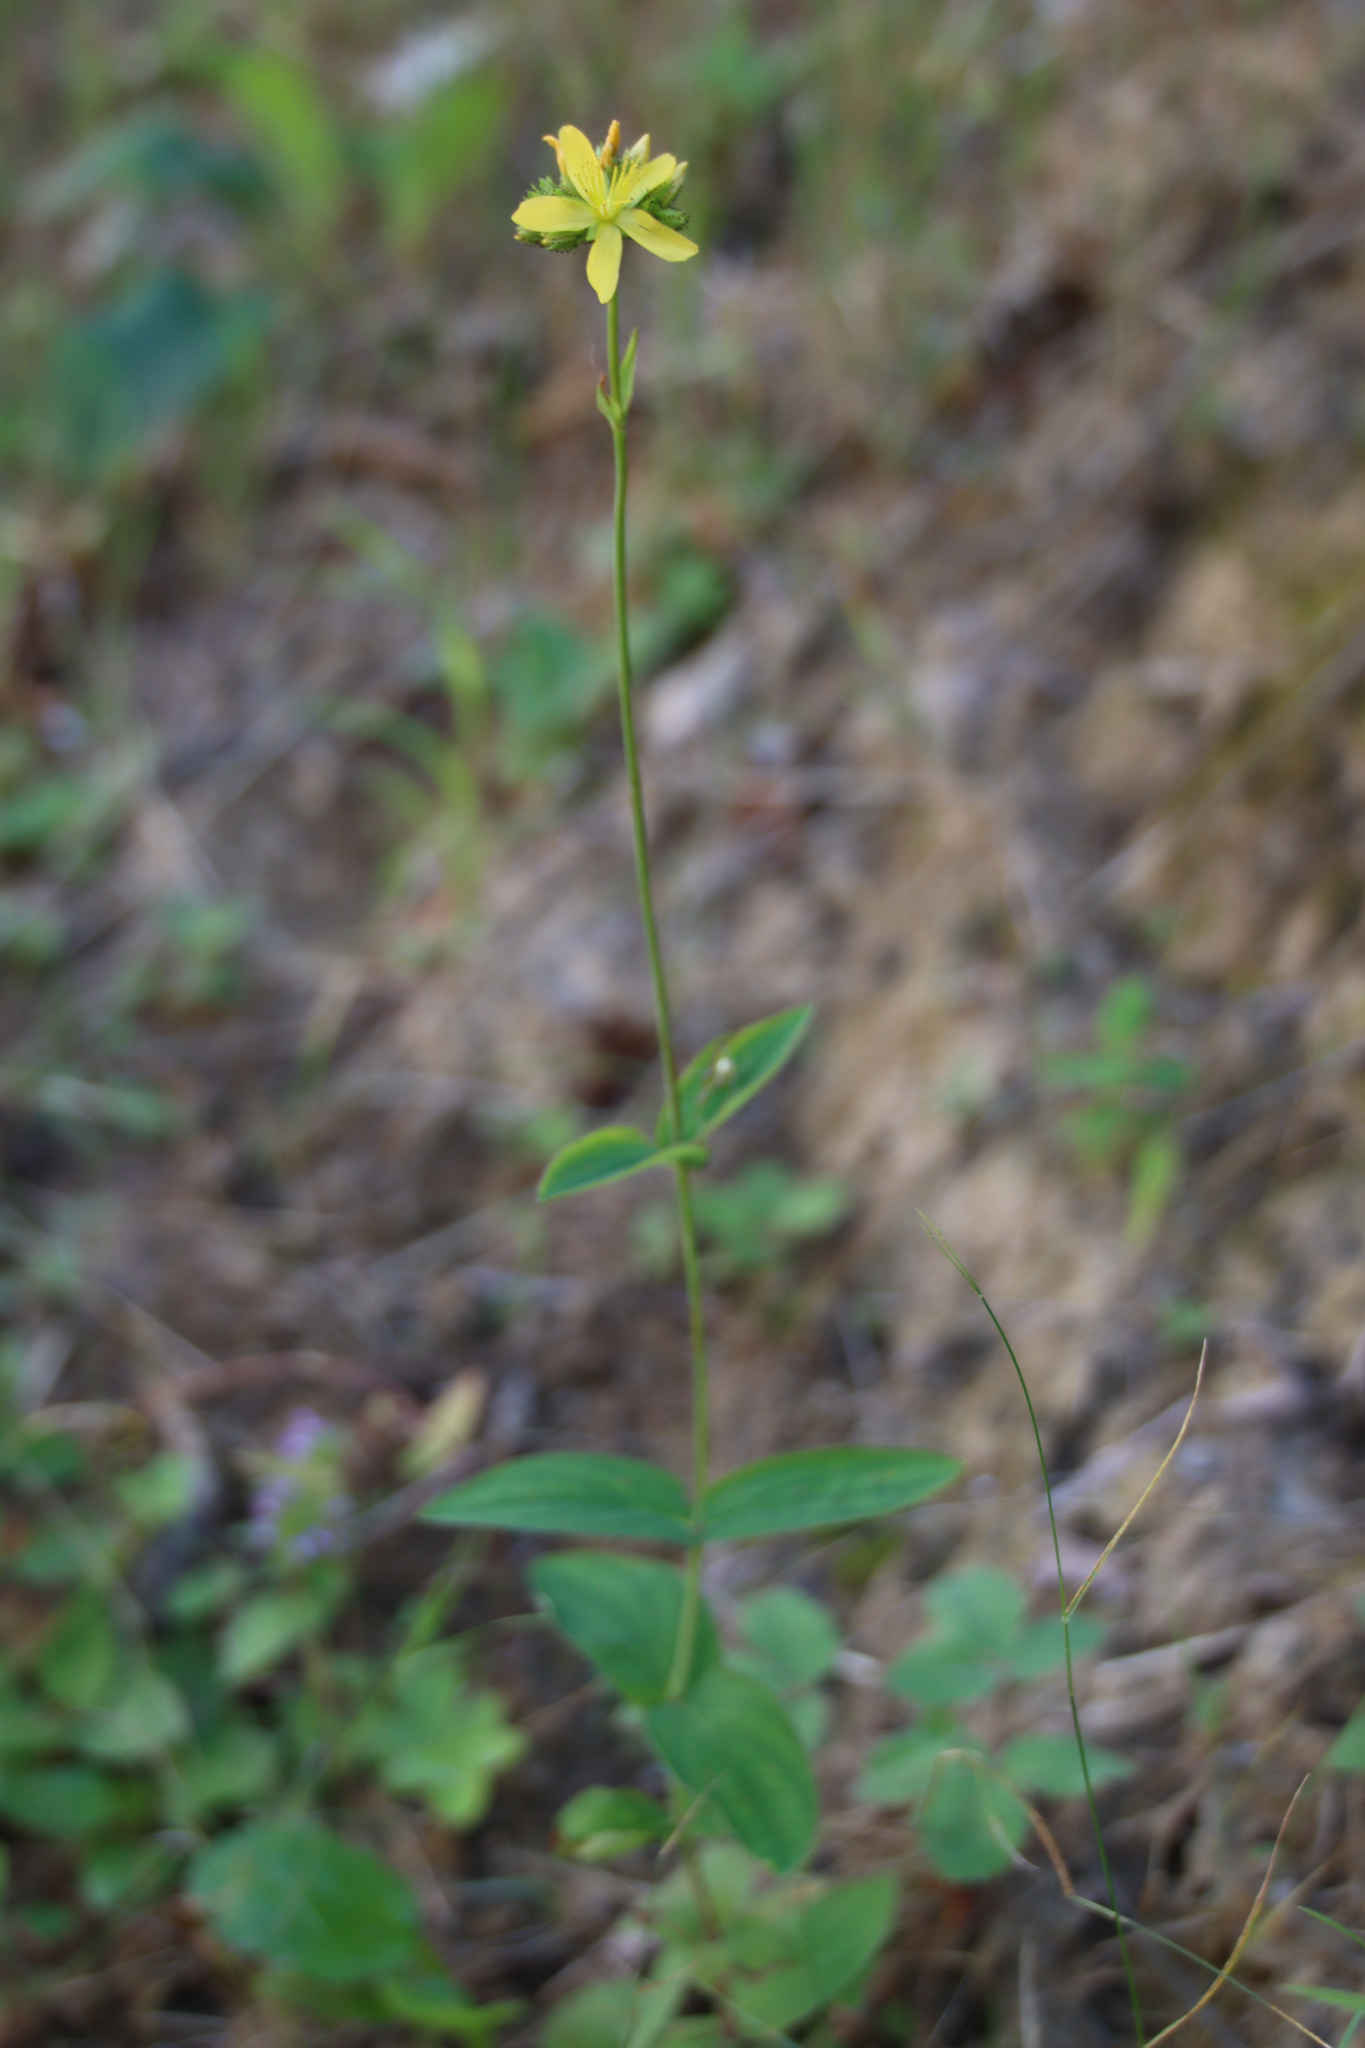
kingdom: Plantae
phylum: Tracheophyta
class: Magnoliopsida
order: Malpighiales
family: Hypericaceae
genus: Hypericum
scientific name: Hypericum montanum
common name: Pale st. john's-wort
